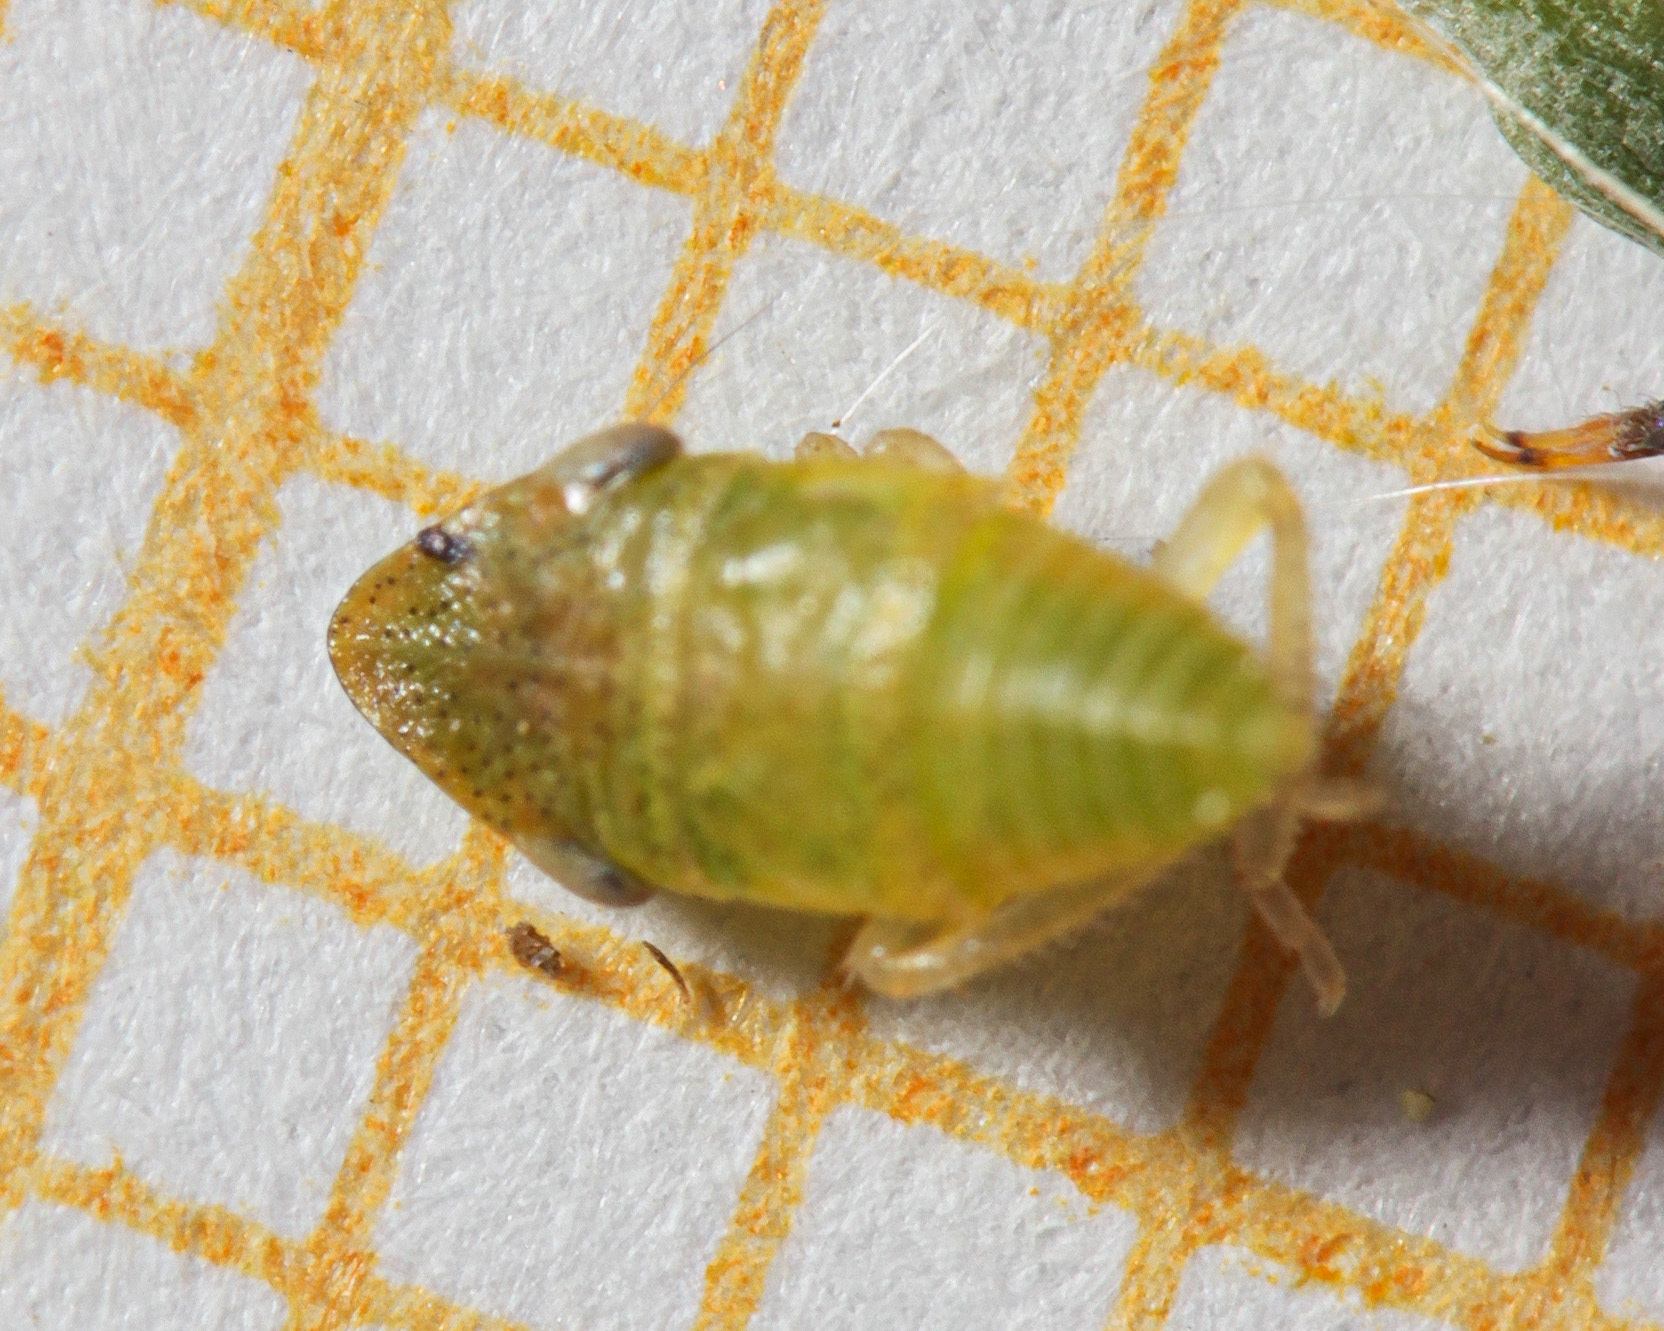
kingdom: Animalia
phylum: Arthropoda
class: Insecta
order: Hemiptera
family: Cicadellidae
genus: Aphrodes
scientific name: Aphrodes
